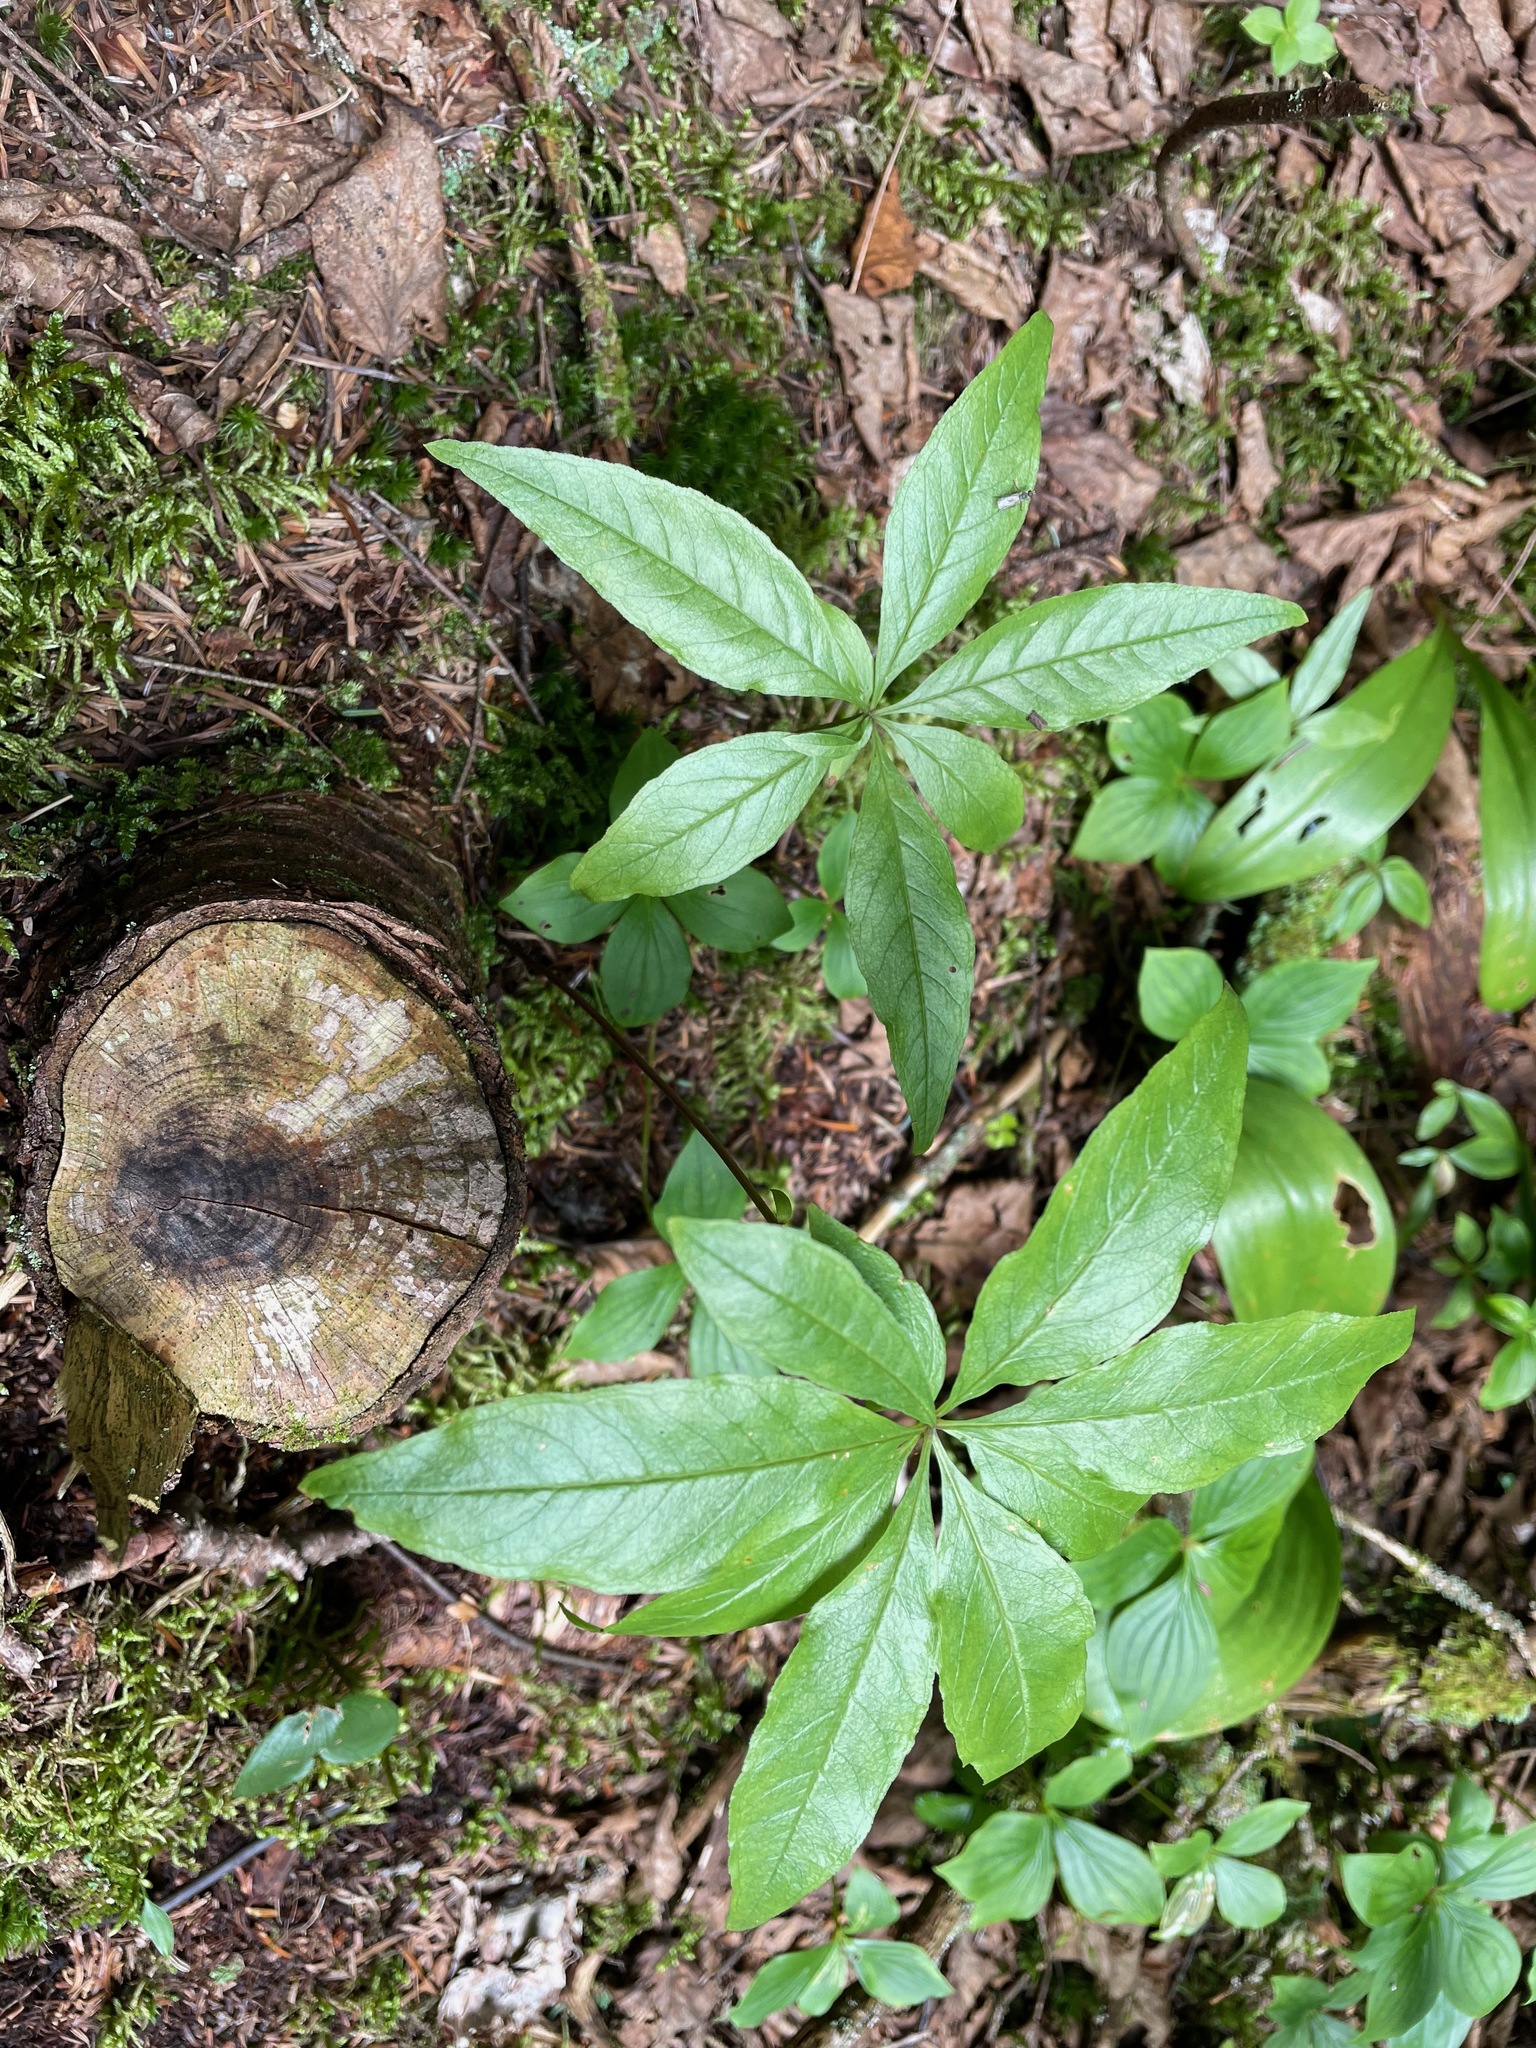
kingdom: Plantae
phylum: Tracheophyta
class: Magnoliopsida
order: Ericales
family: Primulaceae
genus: Lysimachia
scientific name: Lysimachia borealis
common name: American starflower
